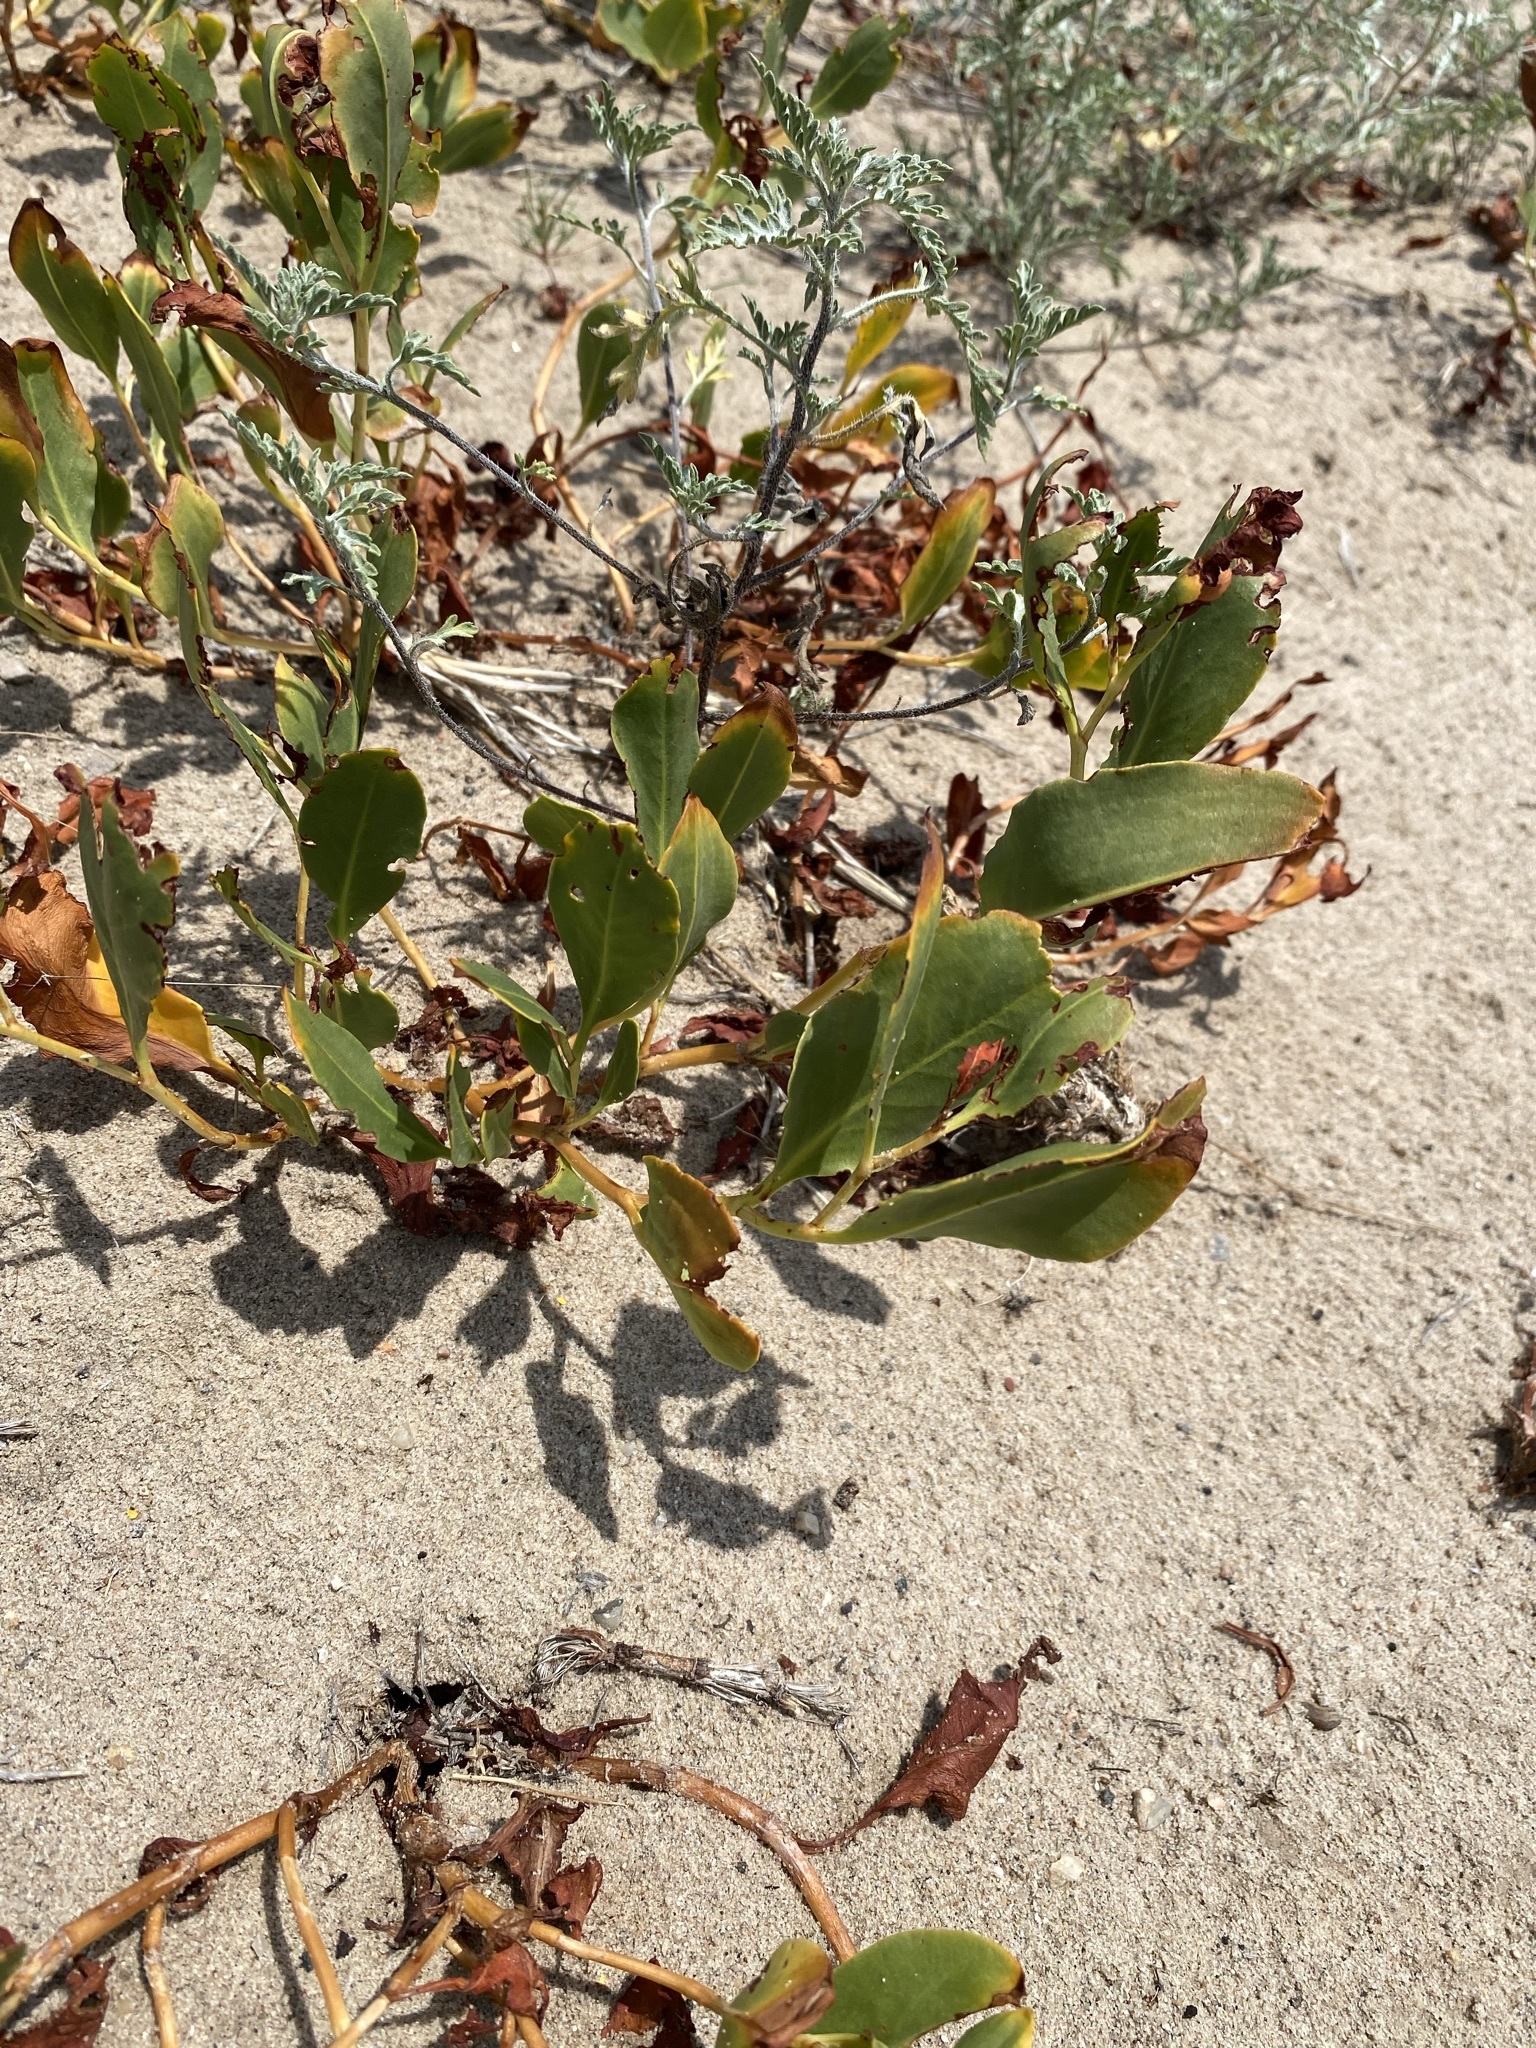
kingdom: Plantae
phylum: Tracheophyta
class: Magnoliopsida
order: Caryophyllales
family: Polygonaceae
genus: Rumex
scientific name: Rumex venosus
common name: Winged dock
